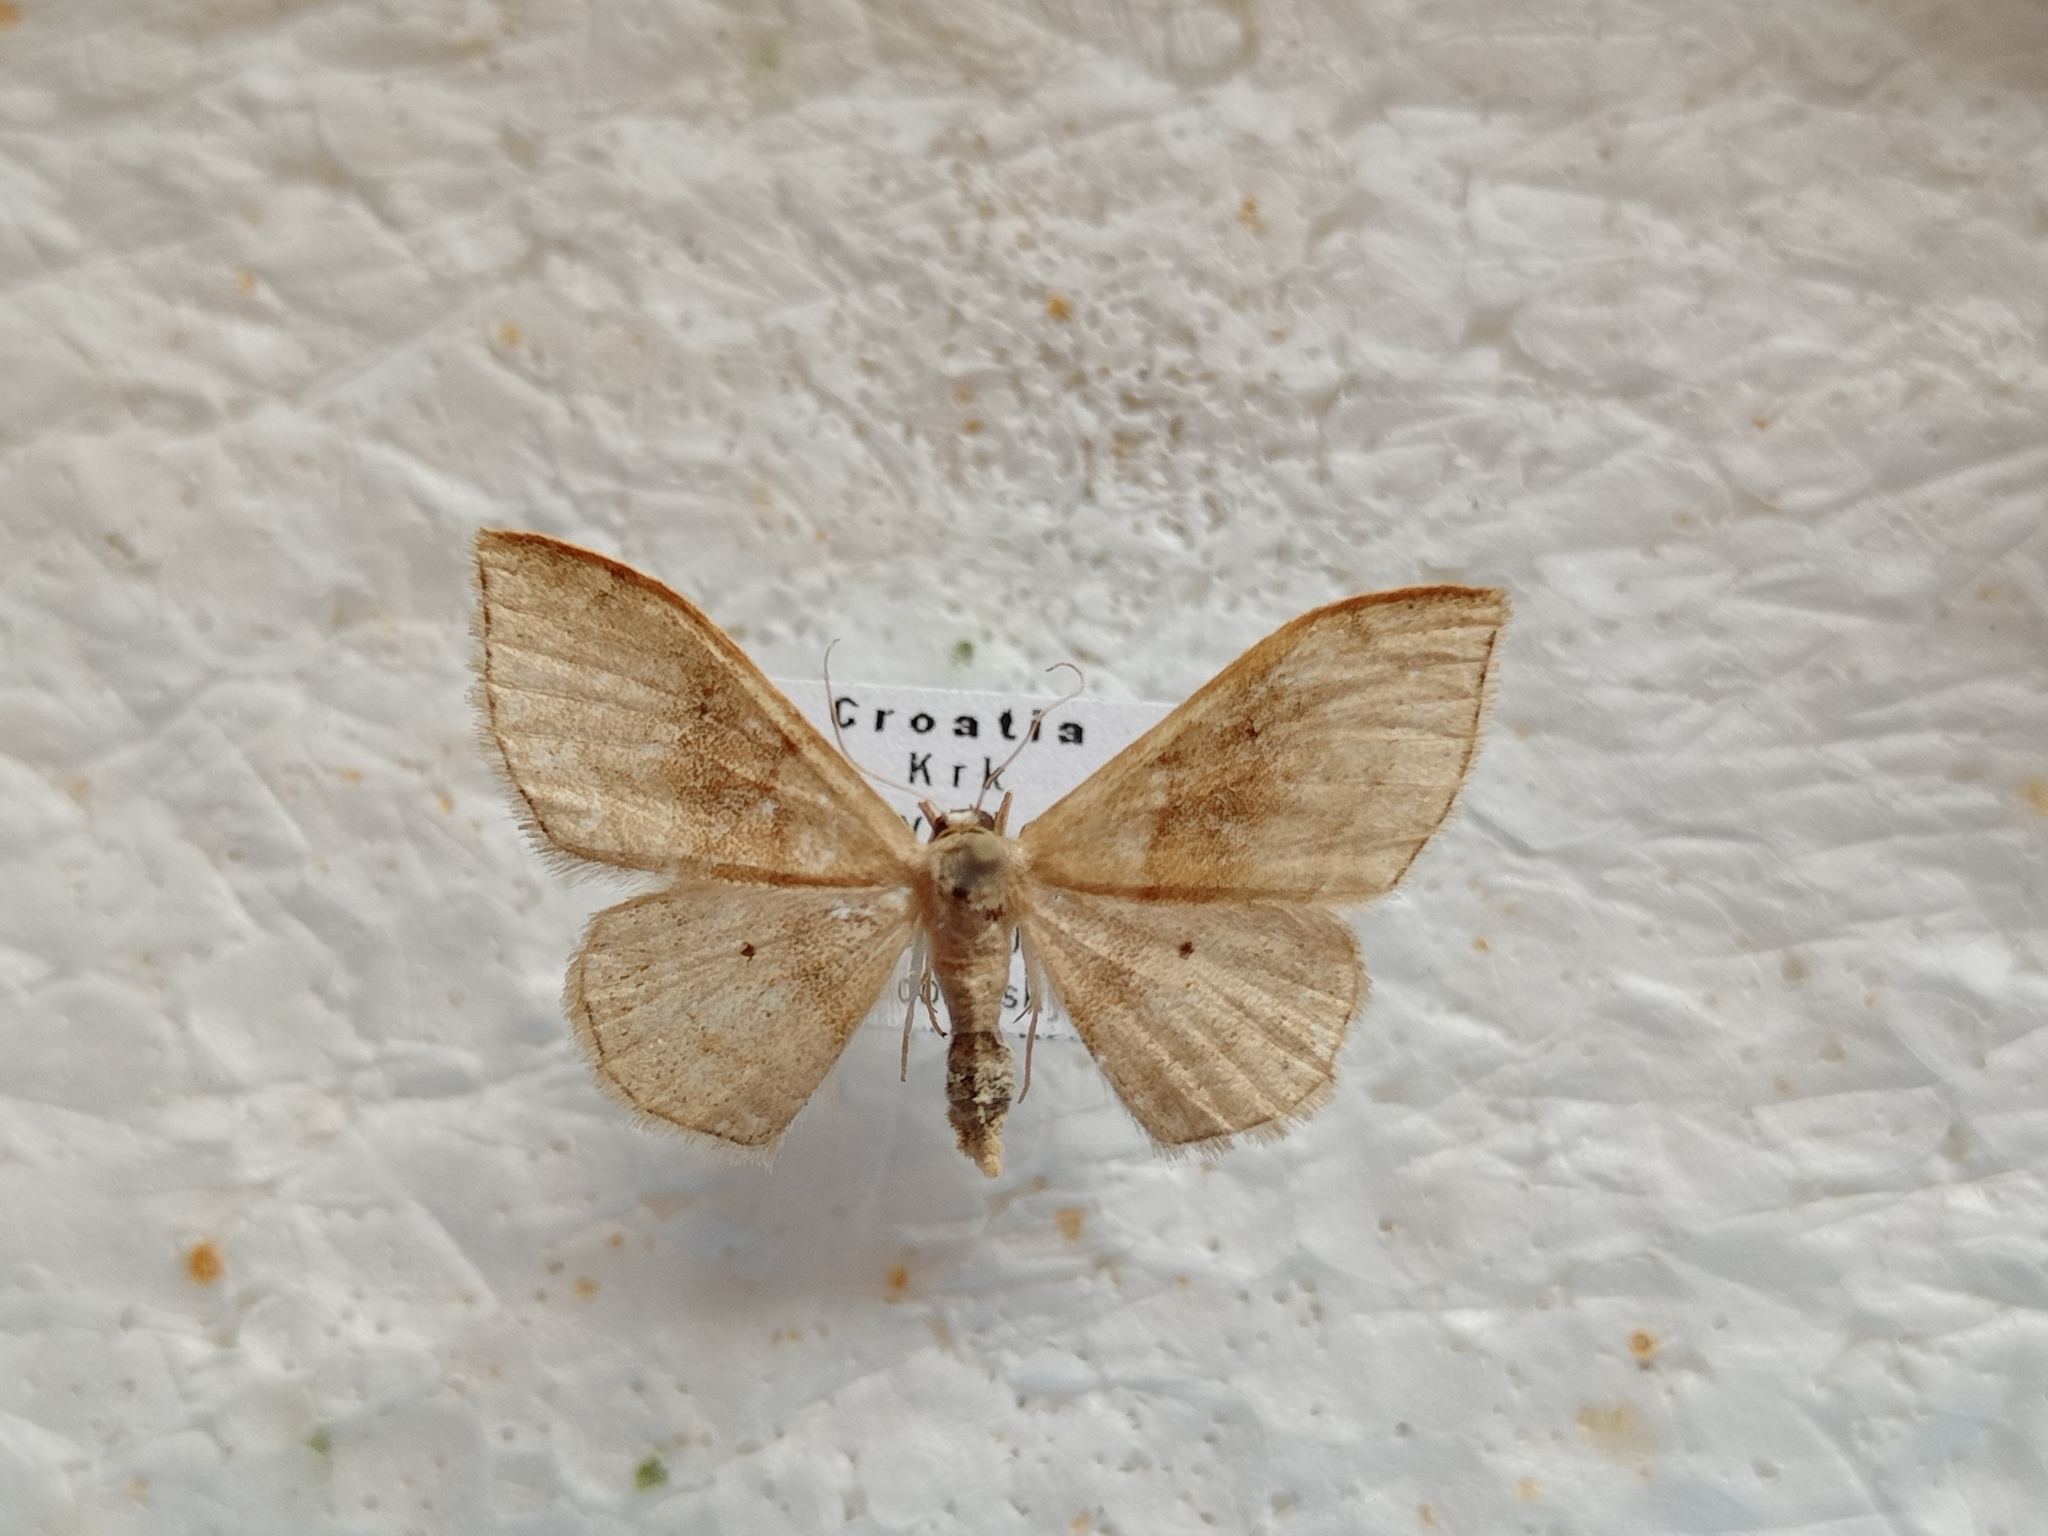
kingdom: Animalia
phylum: Arthropoda
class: Insecta
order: Lepidoptera
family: Geometridae
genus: Idaea
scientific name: Idaea degeneraria
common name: Portland ribbon wave
